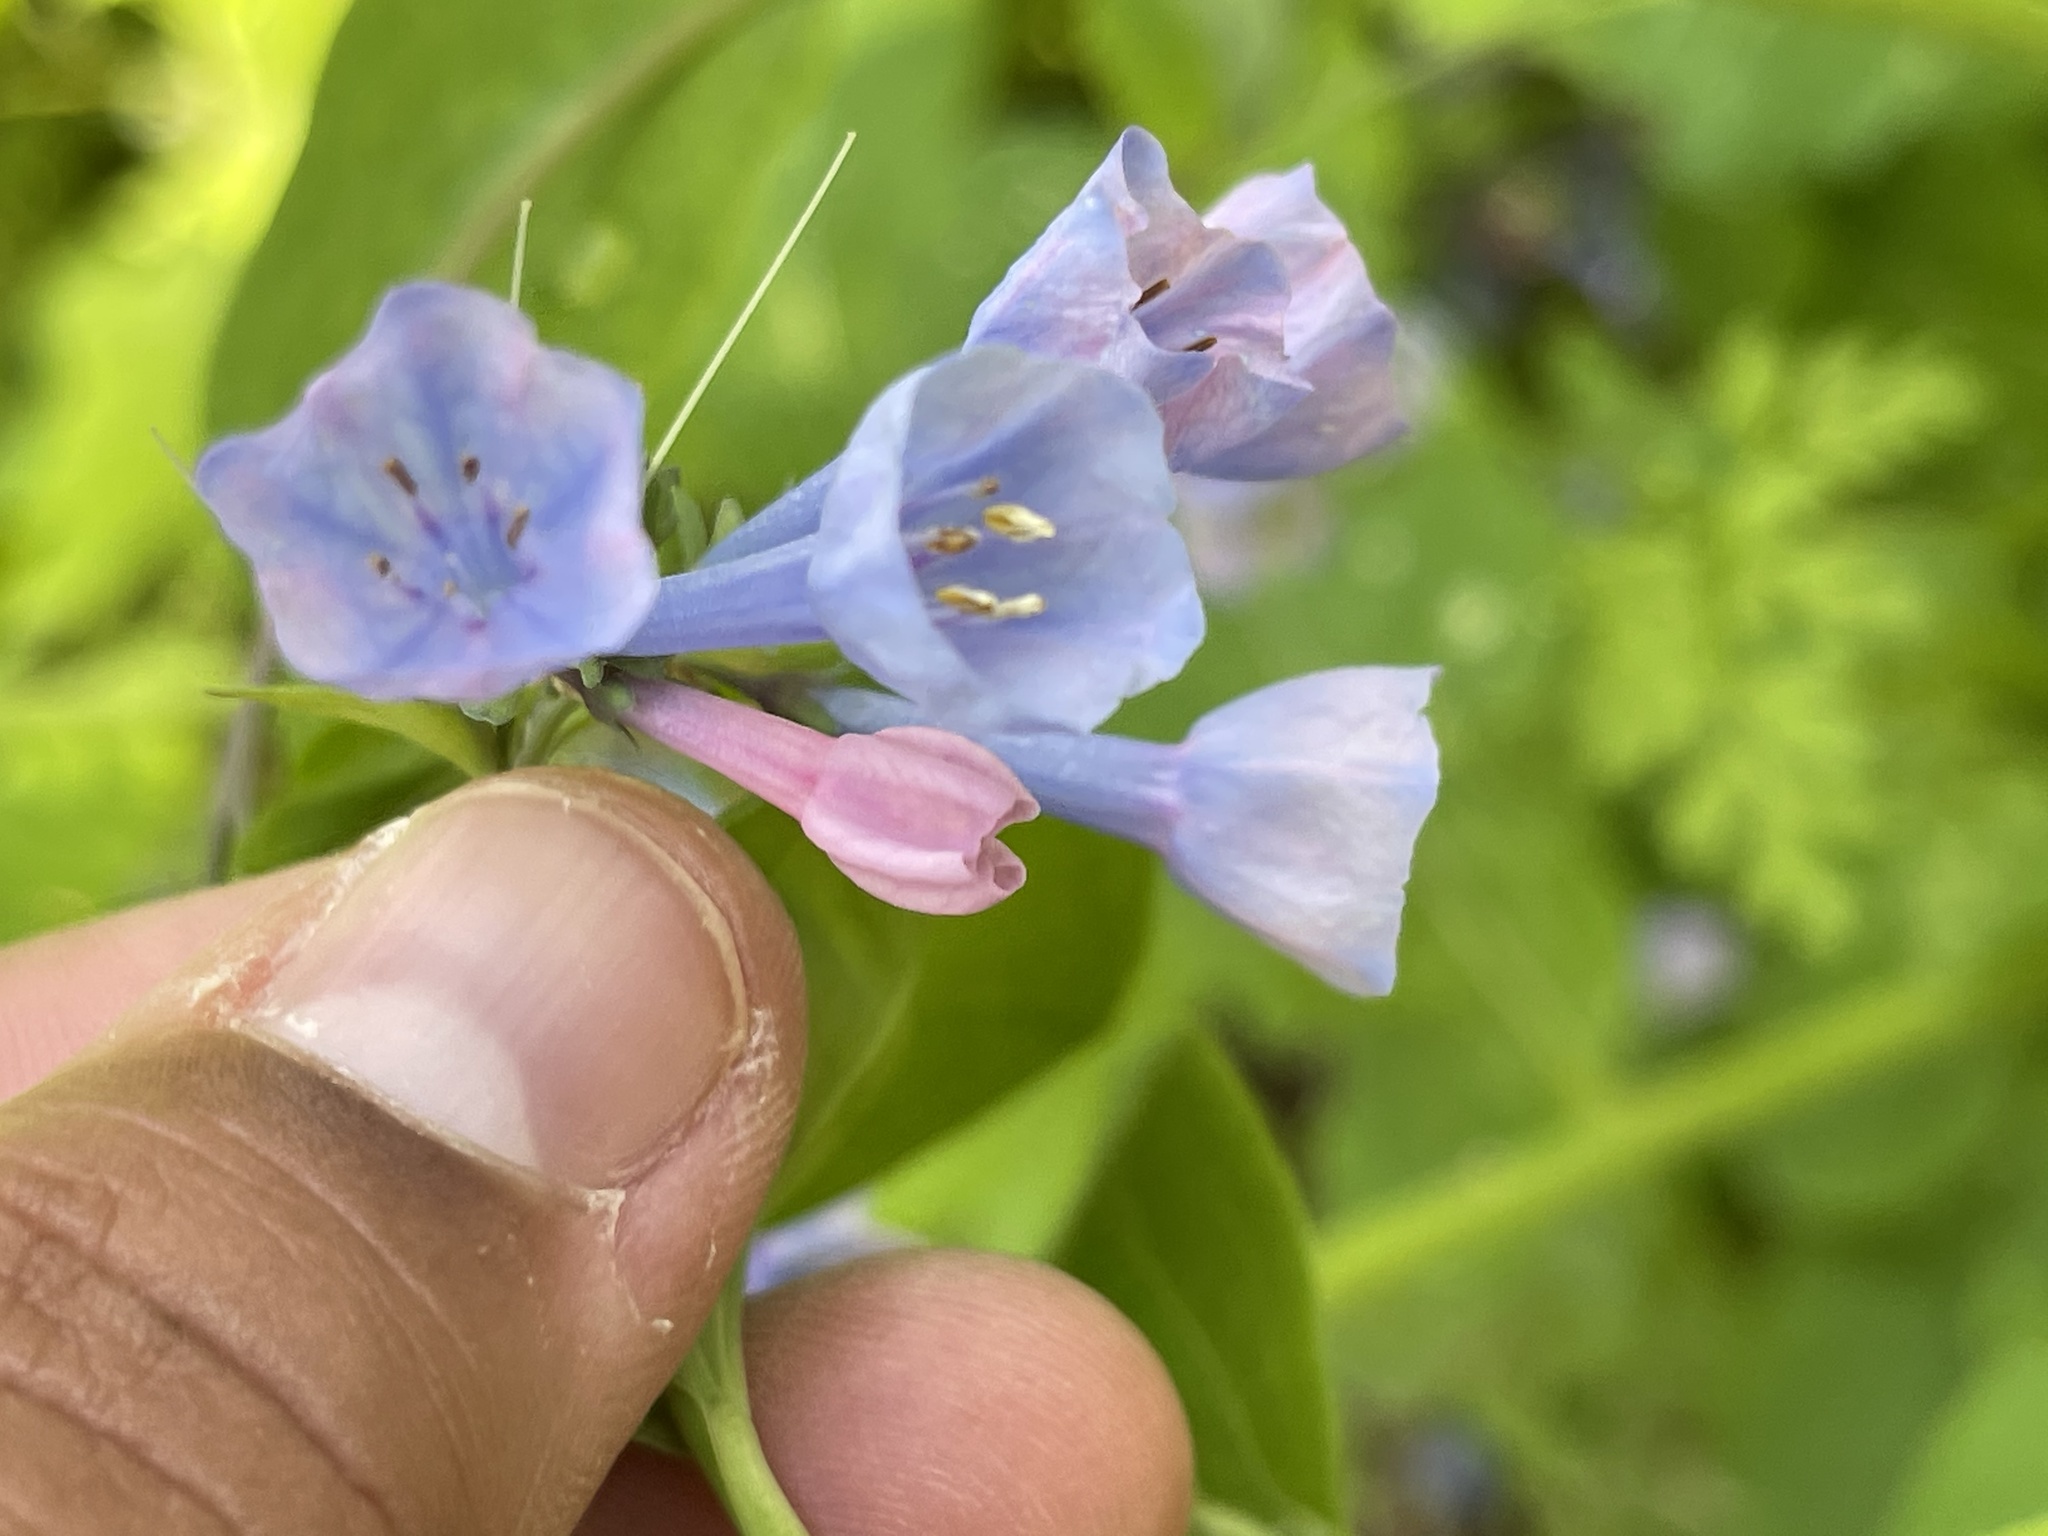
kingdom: Plantae
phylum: Tracheophyta
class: Magnoliopsida
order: Boraginales
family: Boraginaceae
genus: Mertensia
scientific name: Mertensia virginica
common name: Virginia bluebells
